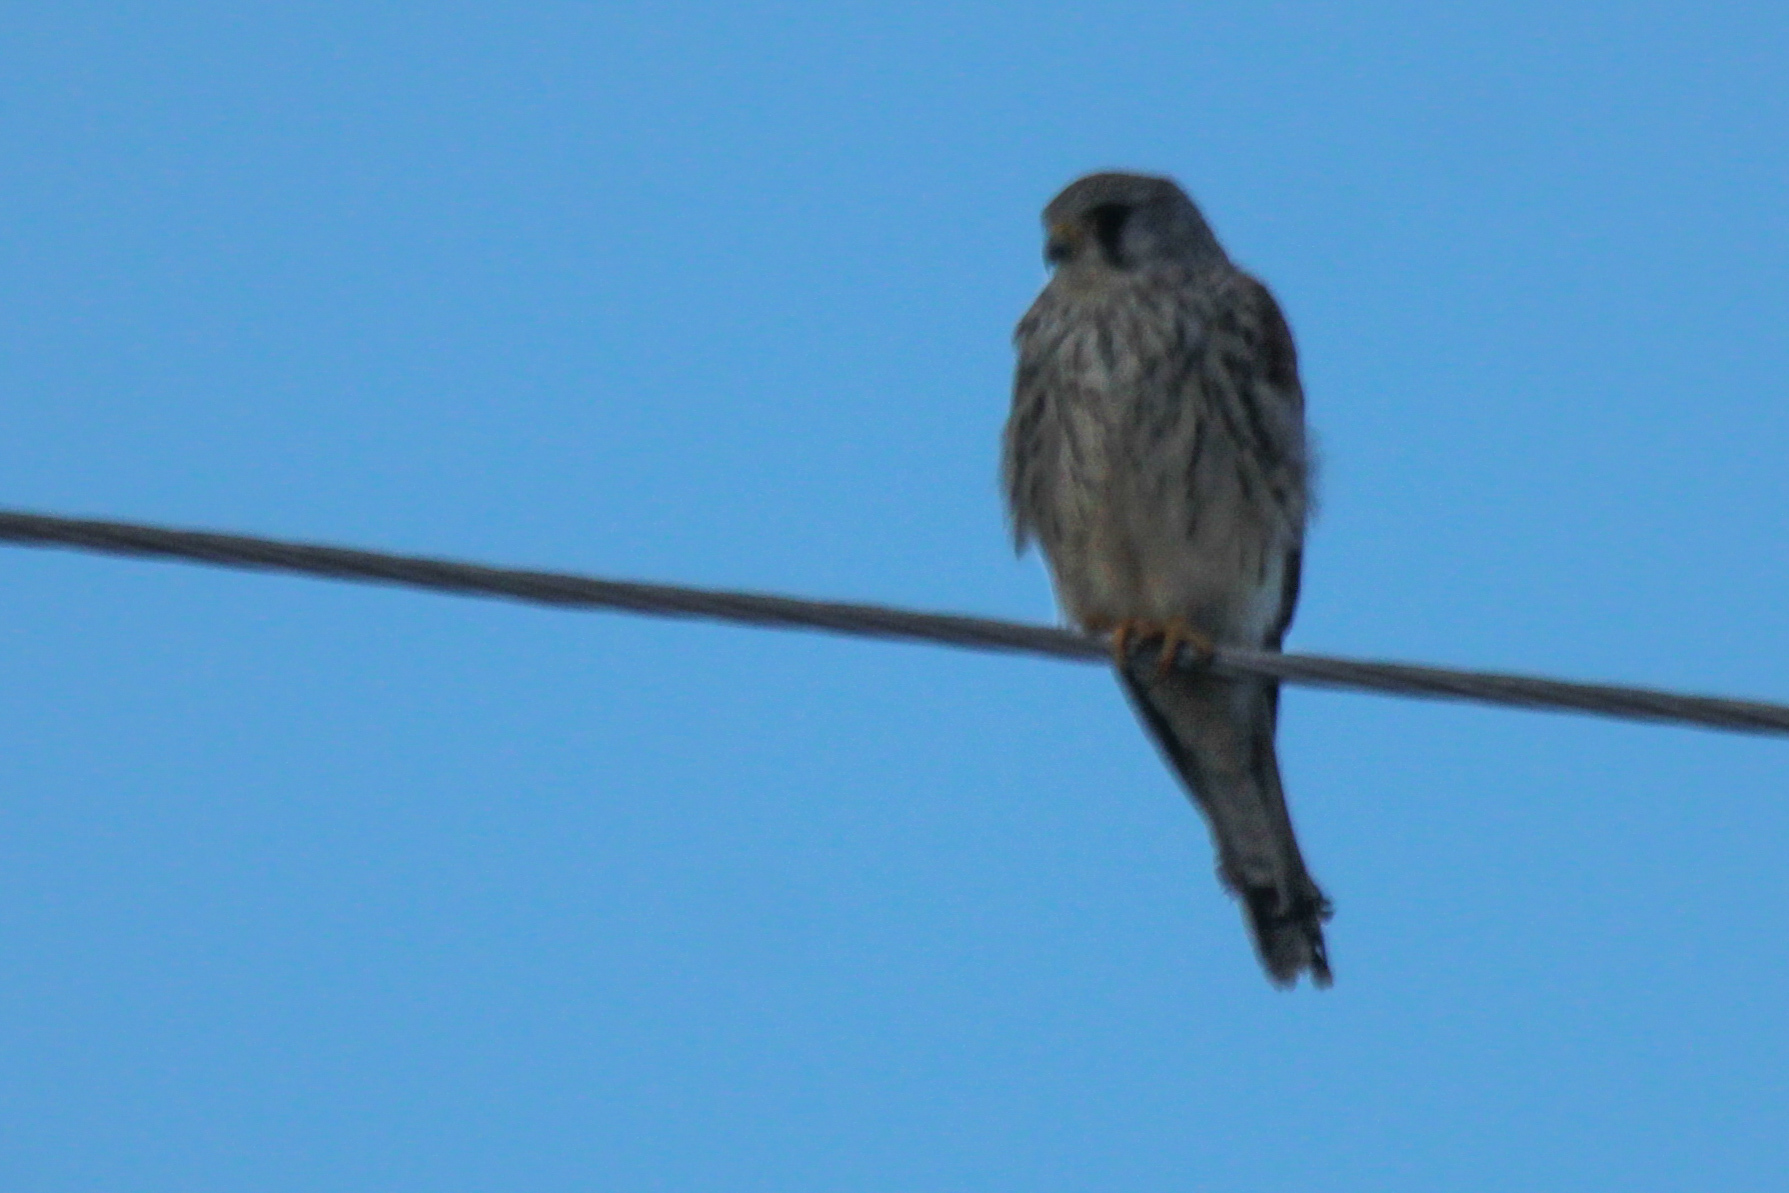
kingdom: Animalia
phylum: Chordata
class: Aves
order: Falconiformes
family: Falconidae
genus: Falco
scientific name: Falco naumanni
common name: Lesser kestrel
